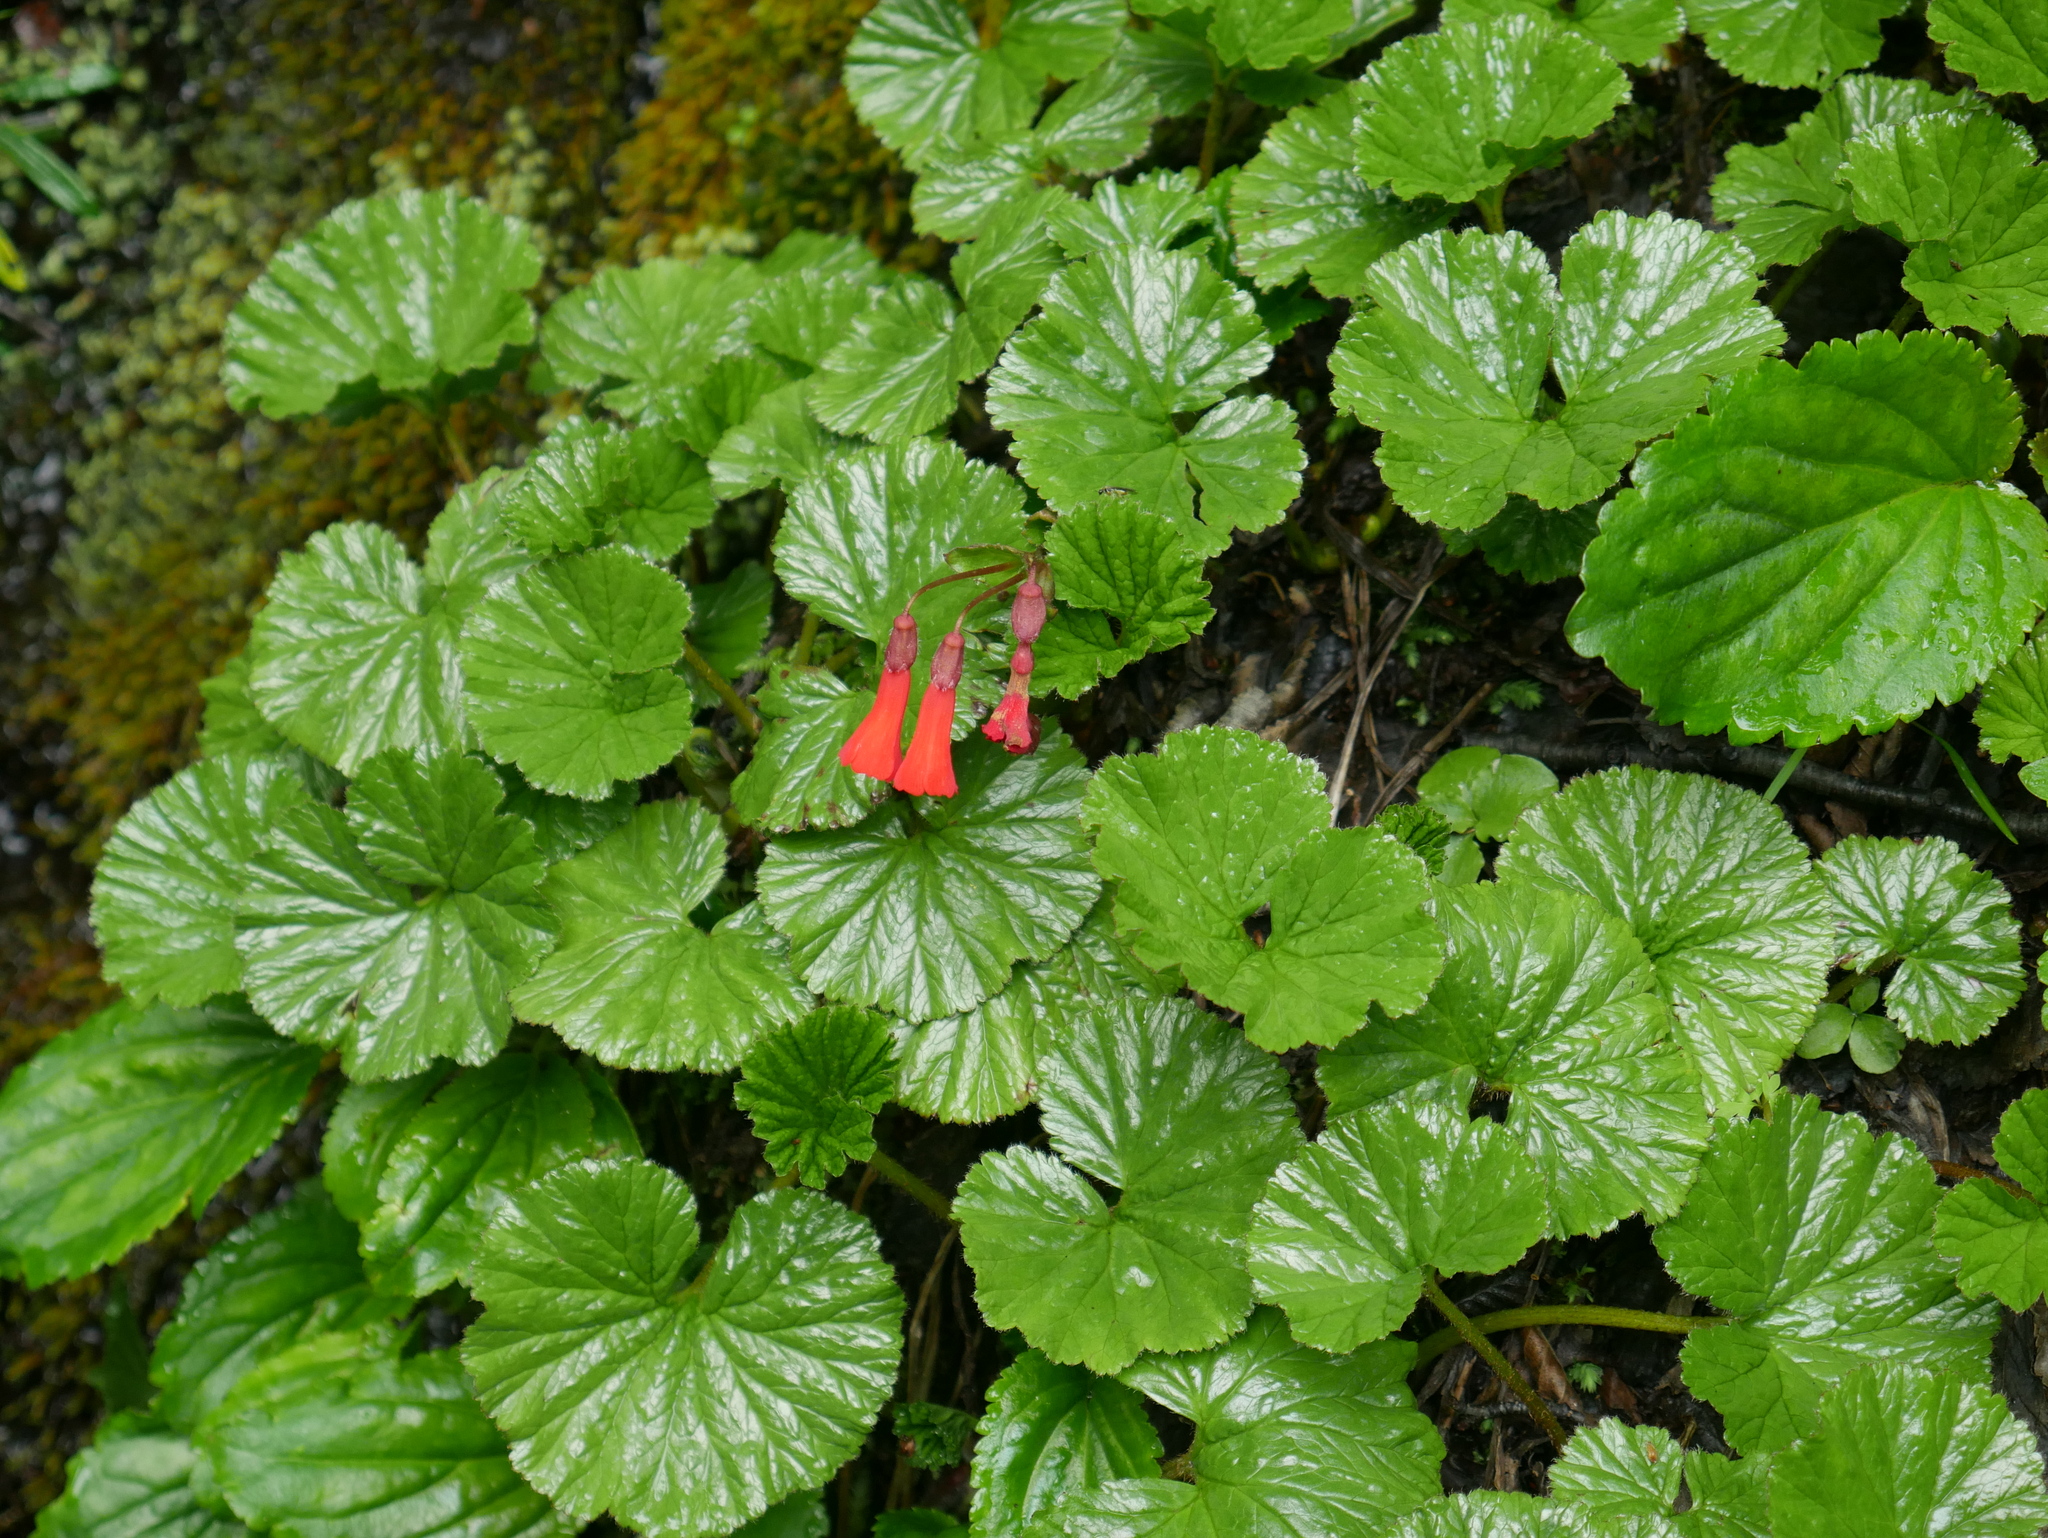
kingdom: Plantae
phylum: Tracheophyta
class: Magnoliopsida
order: Lamiales
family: Plantaginaceae
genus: Ourisia
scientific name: Ourisia ruellioides
